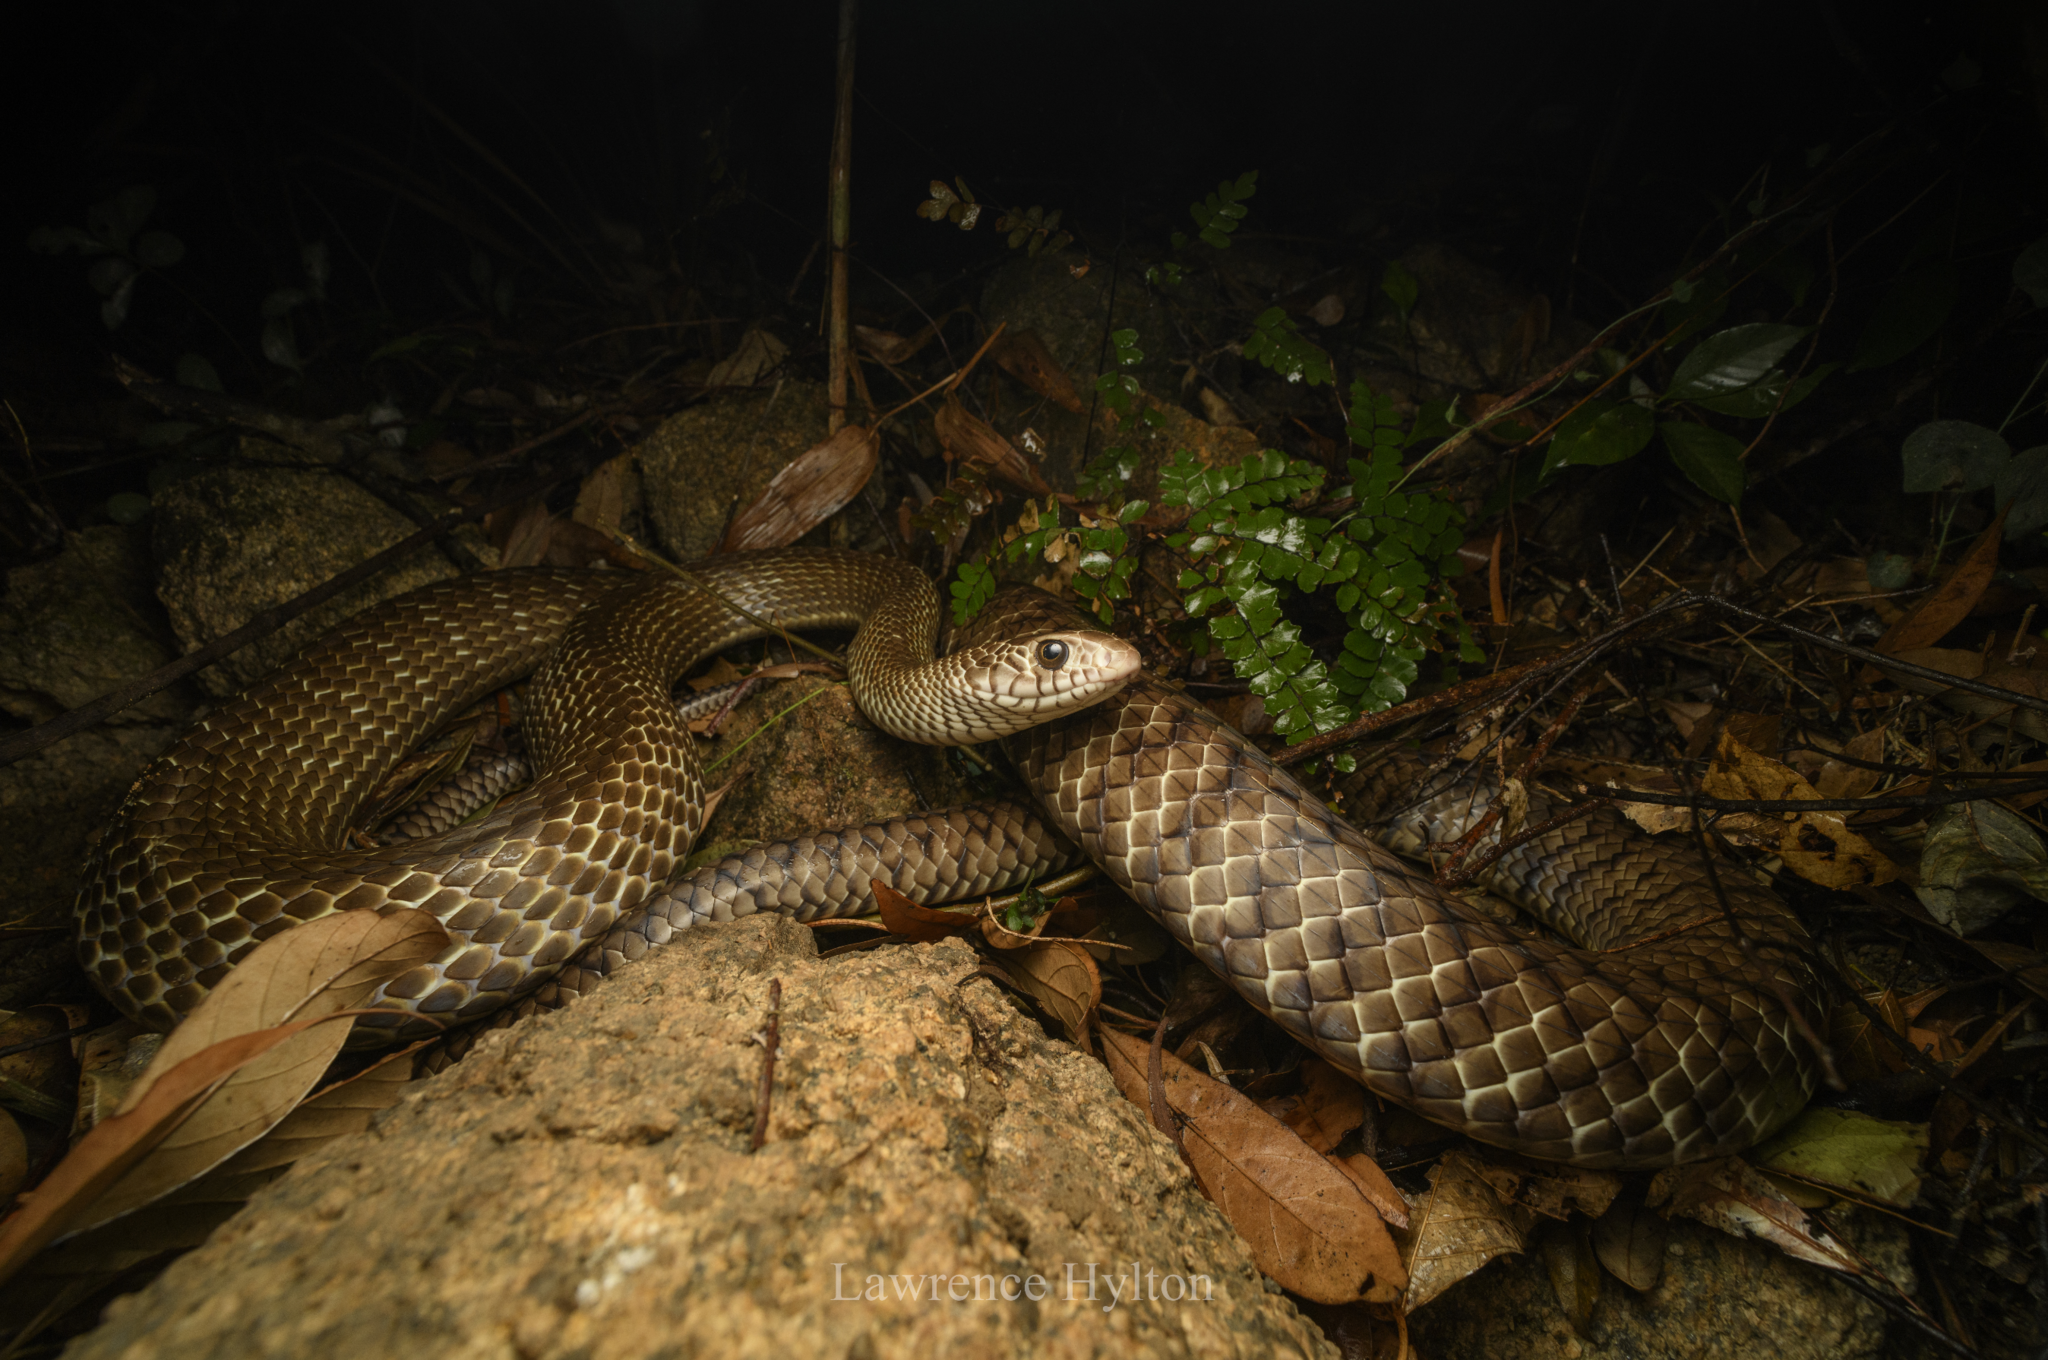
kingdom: Animalia
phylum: Chordata
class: Squamata
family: Colubridae
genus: Ptyas
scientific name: Ptyas mucosa
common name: Oriental ratsnake
